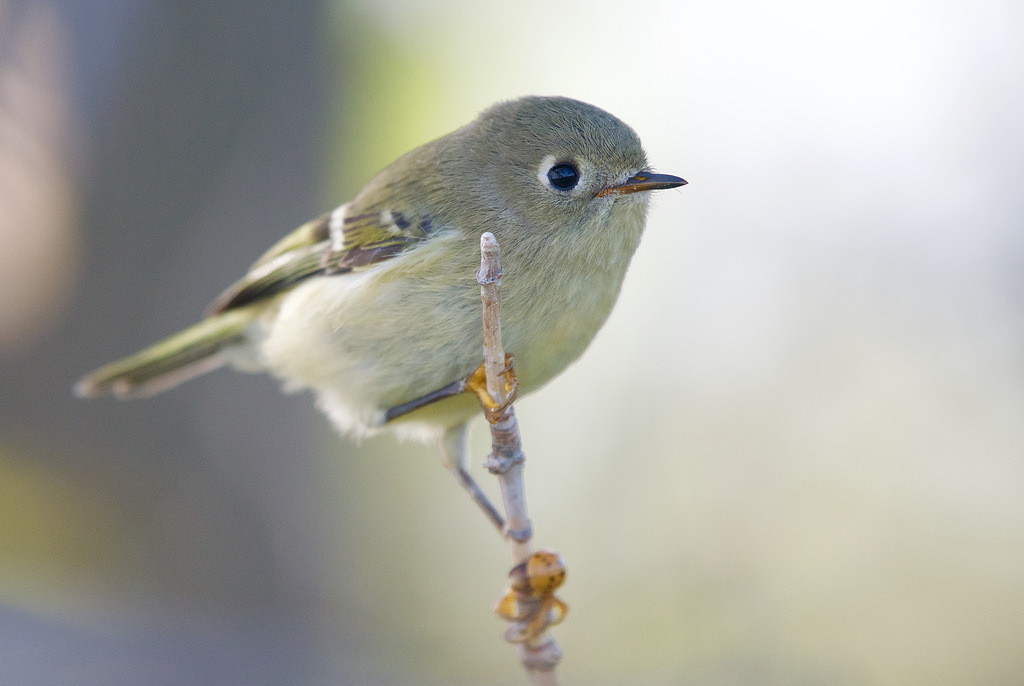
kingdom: Animalia
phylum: Chordata
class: Aves
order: Passeriformes
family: Regulidae
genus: Regulus
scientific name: Regulus calendula
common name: Ruby-crowned kinglet
